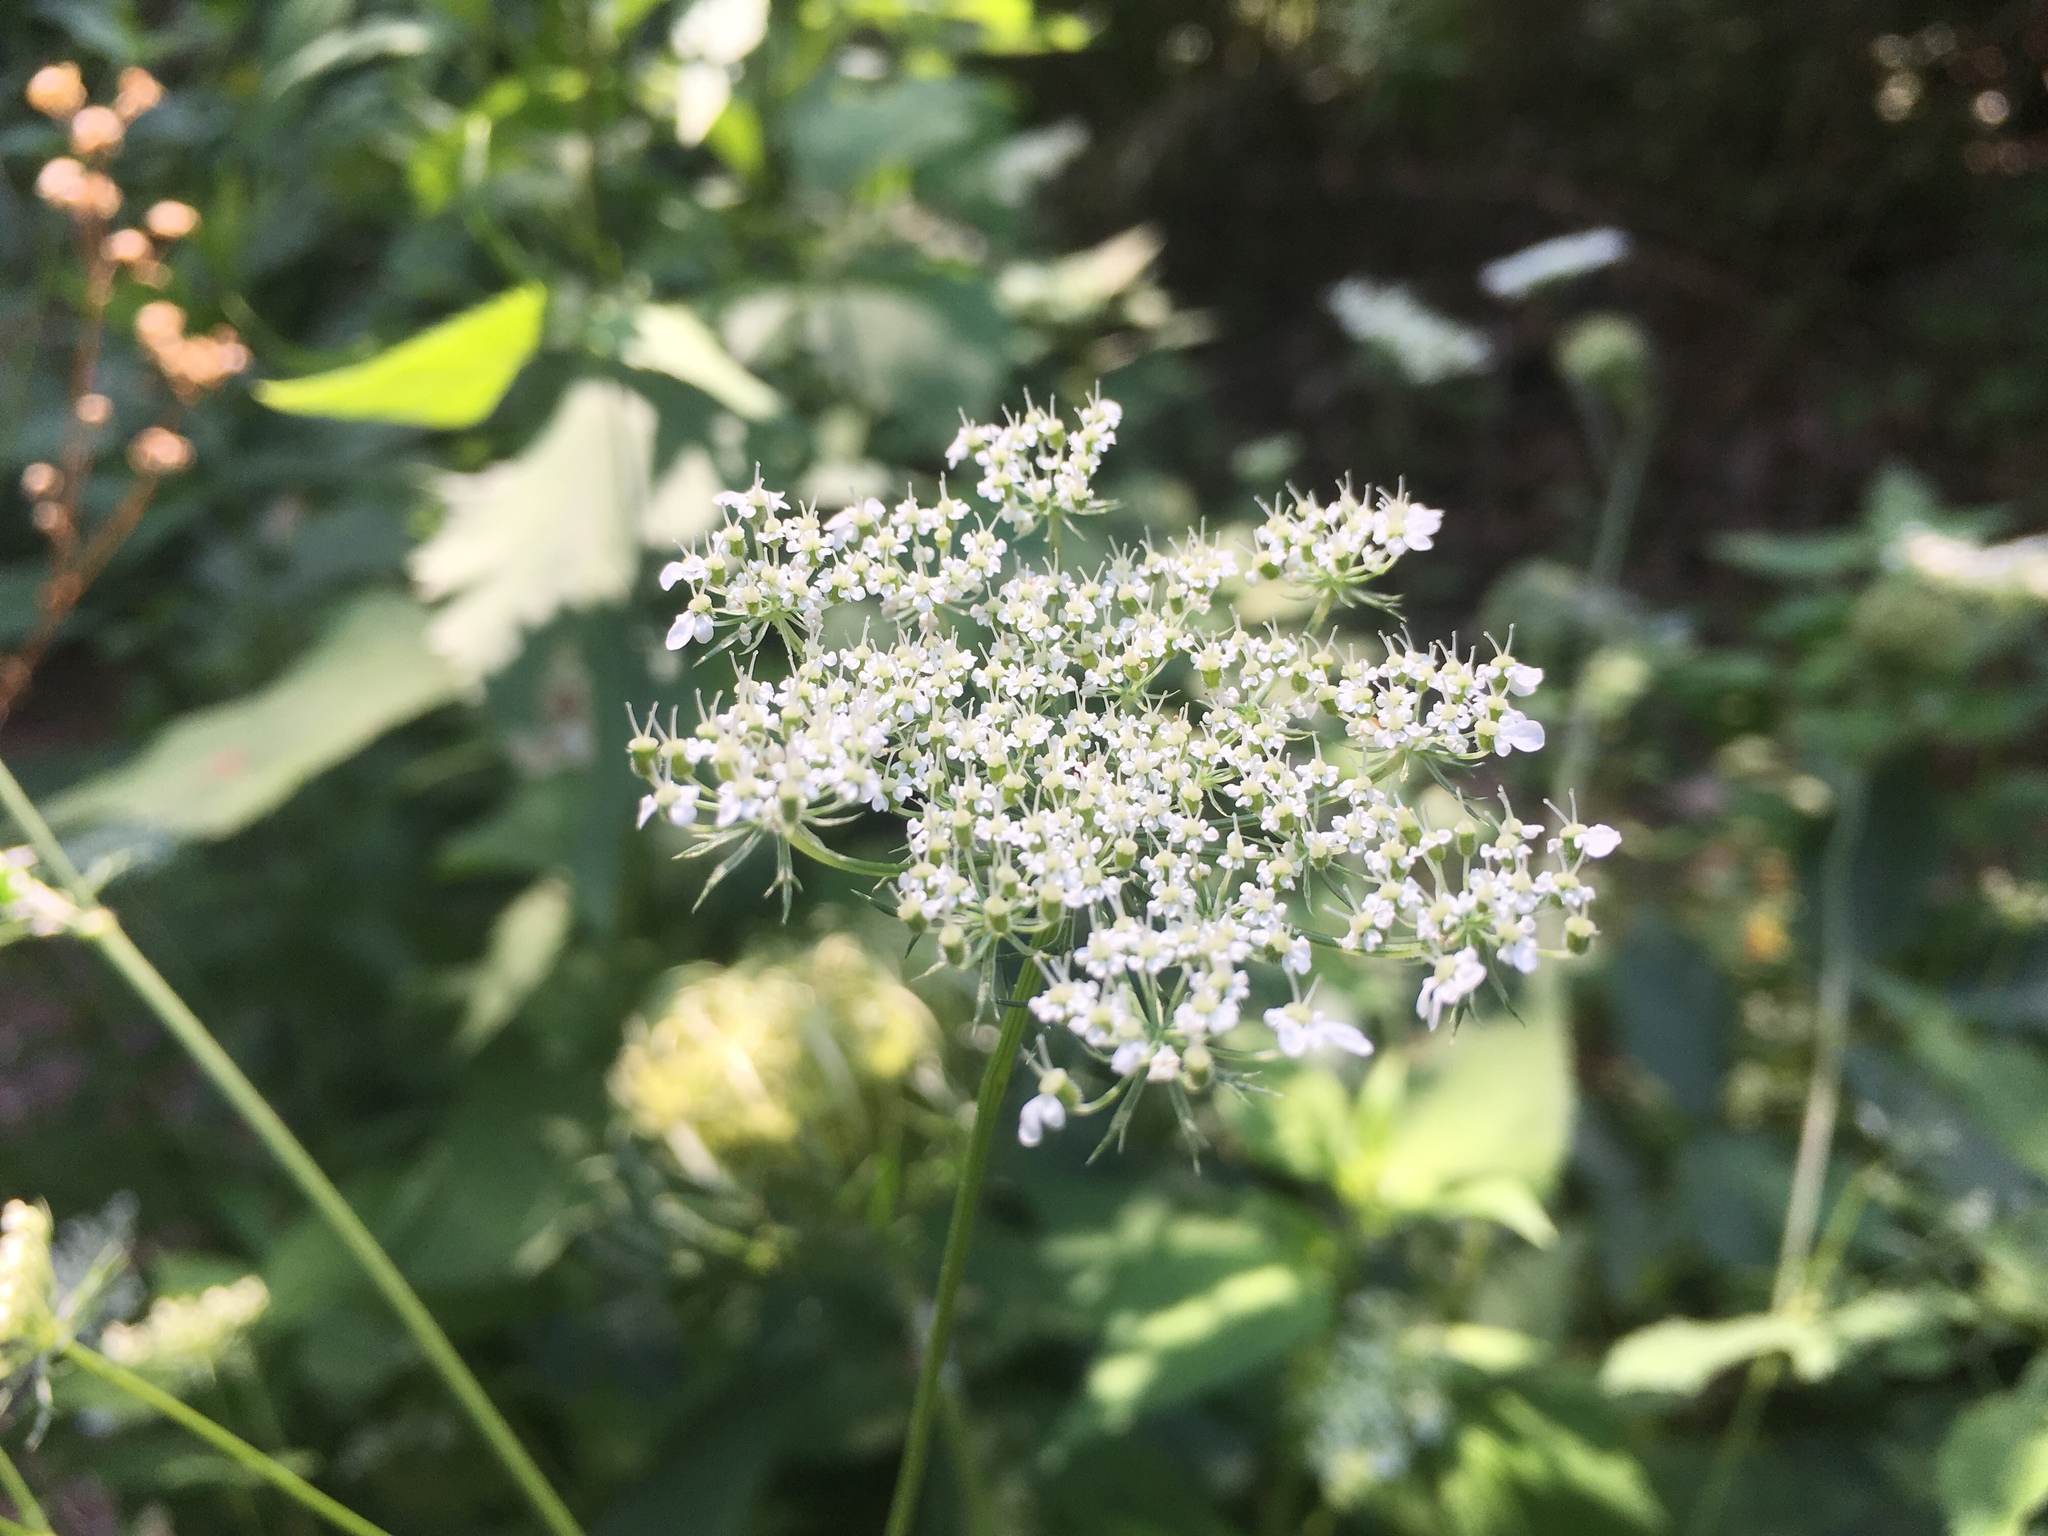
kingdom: Plantae
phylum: Tracheophyta
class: Magnoliopsida
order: Apiales
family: Apiaceae
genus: Daucus
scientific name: Daucus carota
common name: Wild carrot
